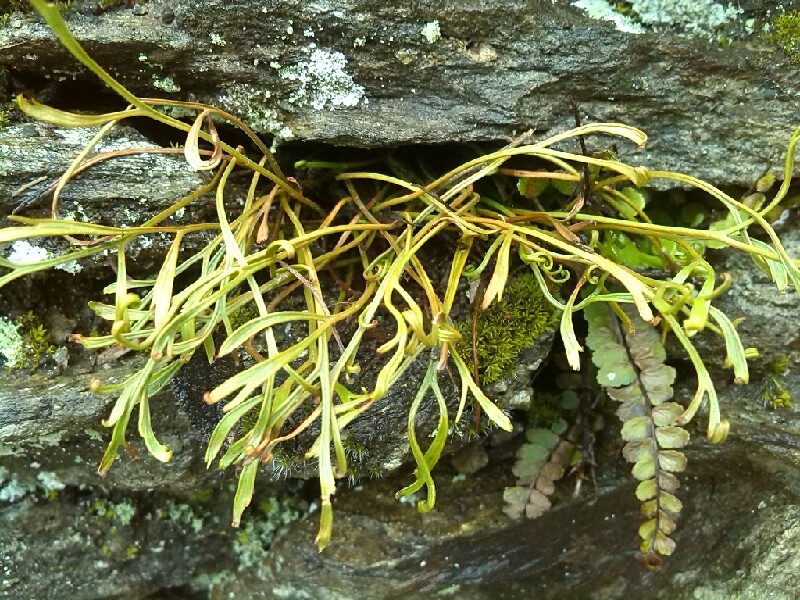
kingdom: Plantae
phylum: Tracheophyta
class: Polypodiopsida
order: Polypodiales
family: Aspleniaceae
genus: Asplenium
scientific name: Asplenium septentrionale
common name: Forked spleenwort
